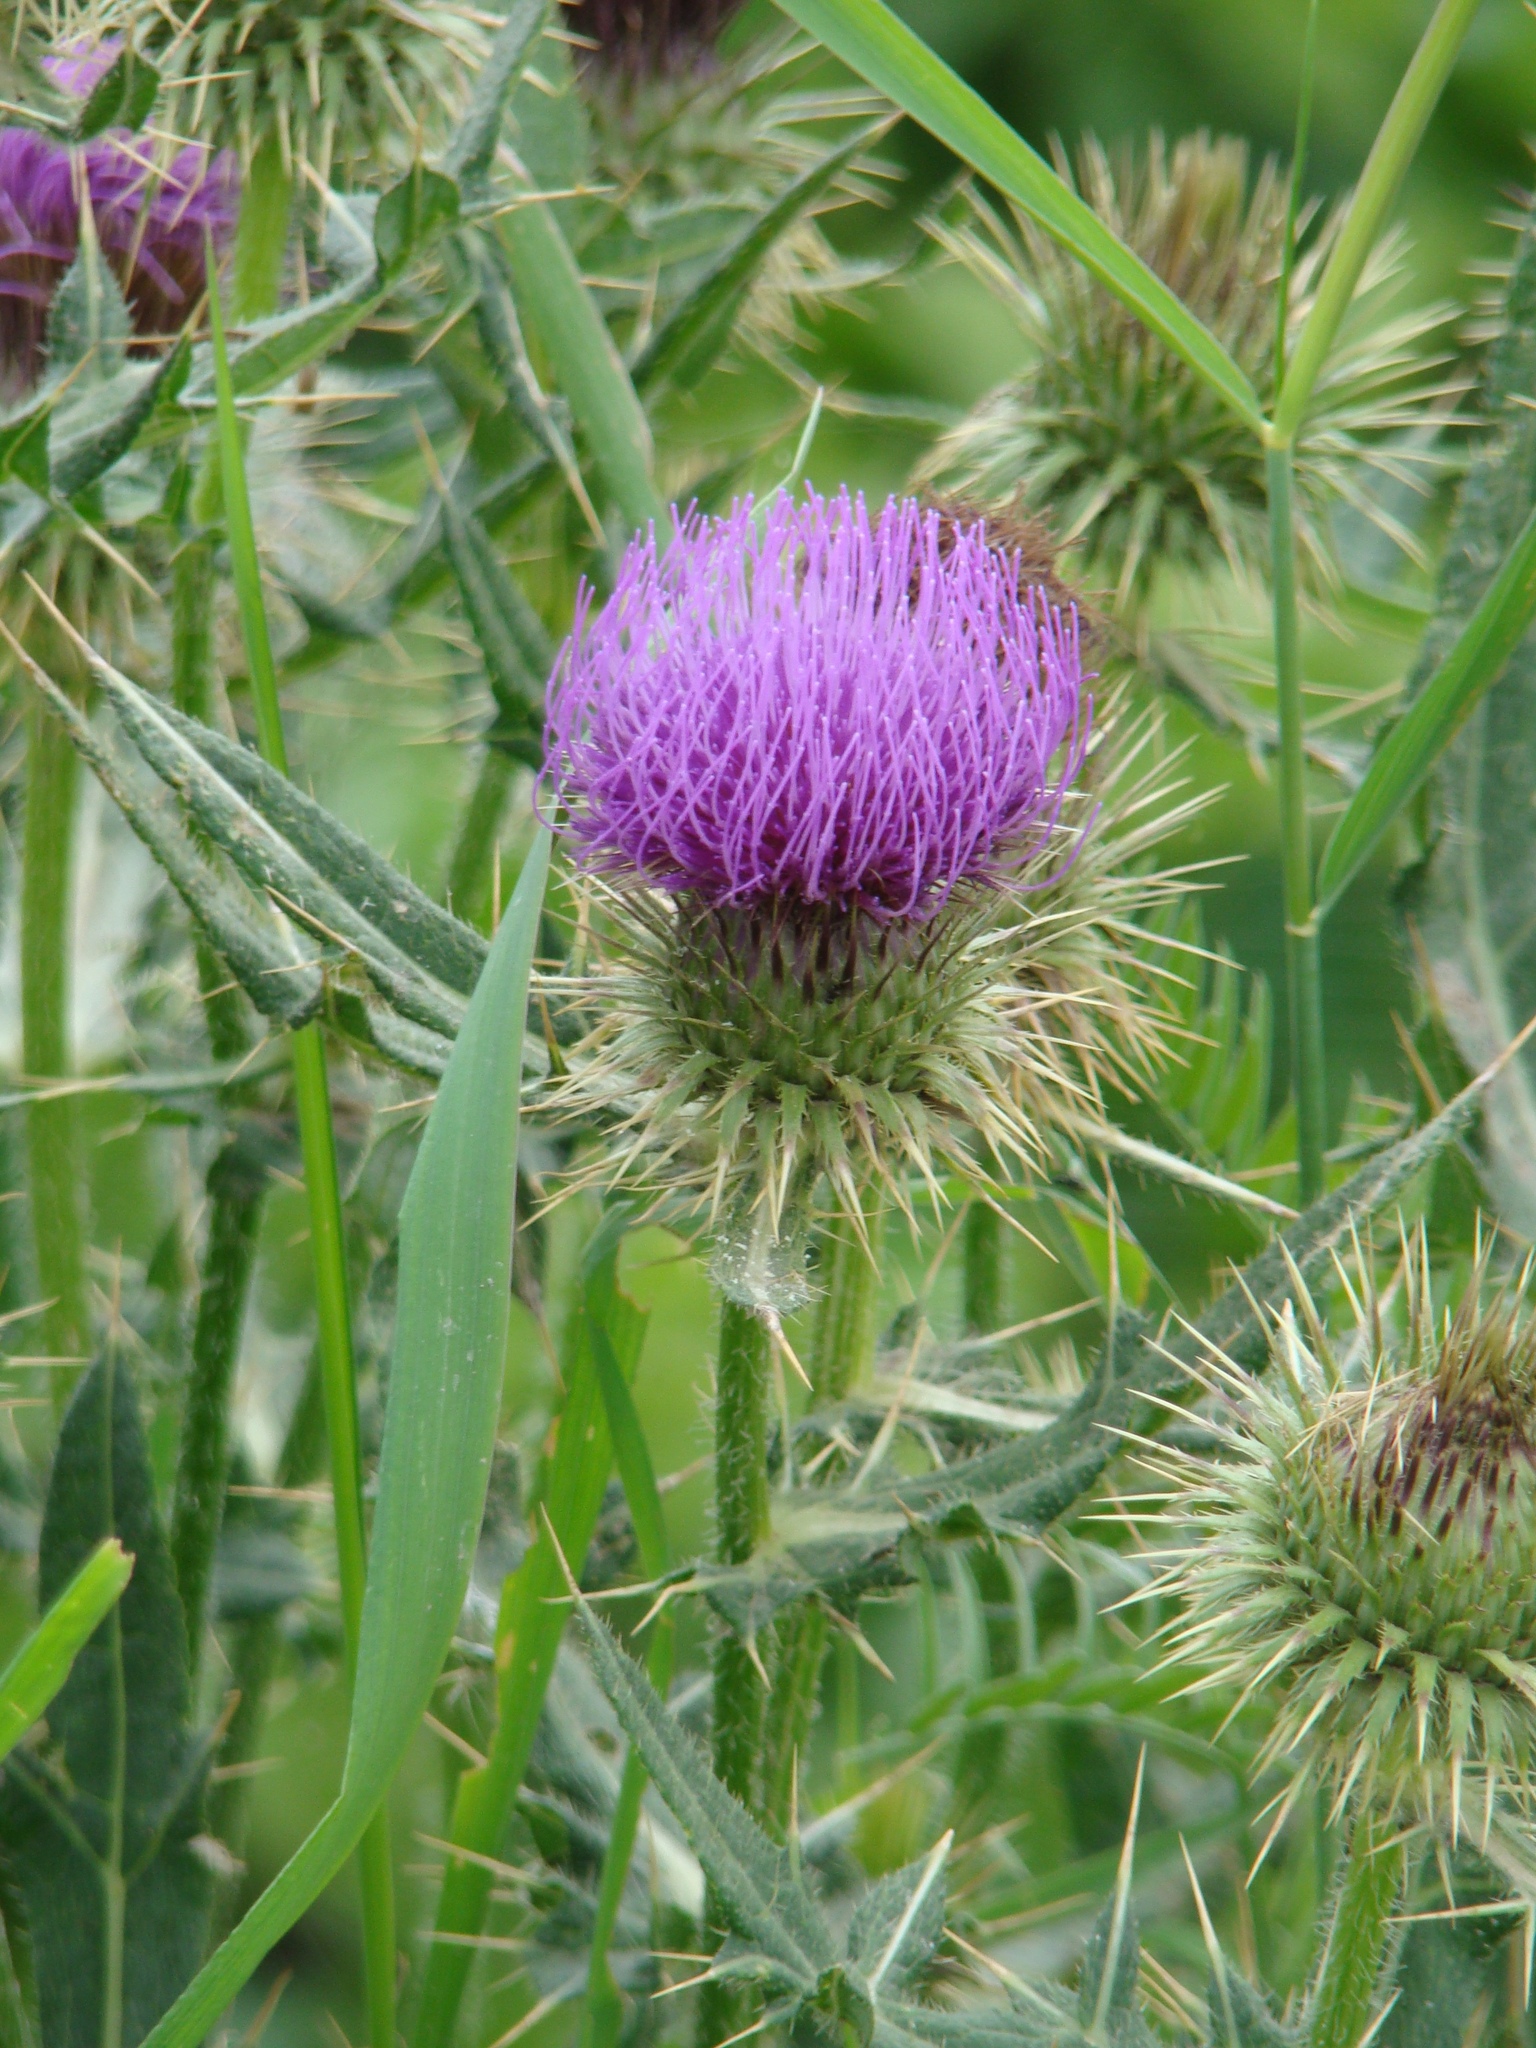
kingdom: Plantae
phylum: Tracheophyta
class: Magnoliopsida
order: Asterales
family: Asteraceae
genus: Lophiolepis
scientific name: Lophiolepis ciliata
